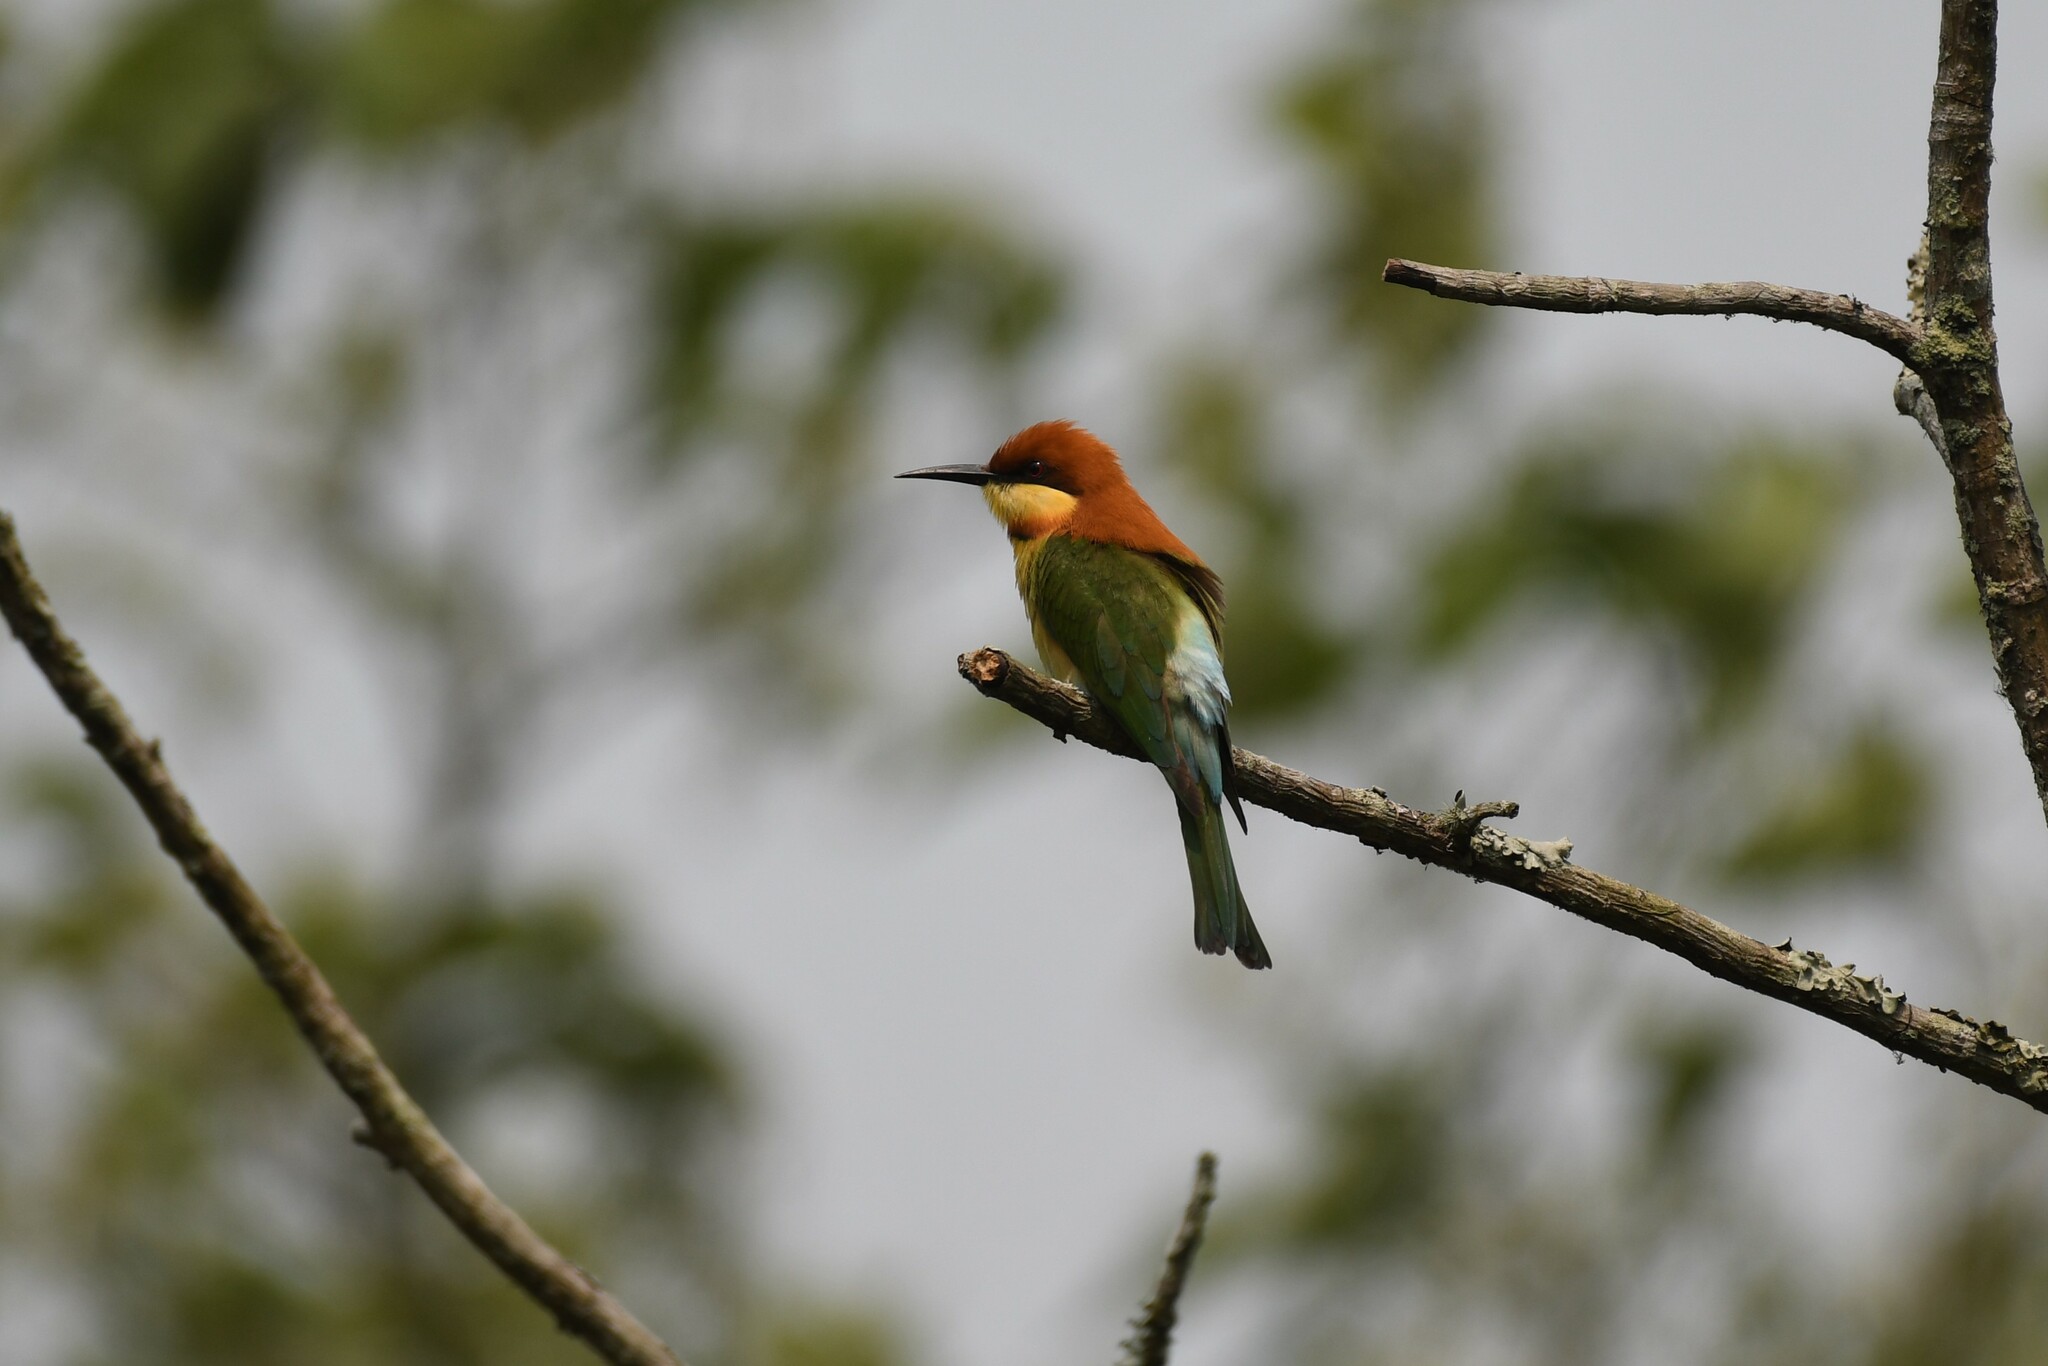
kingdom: Animalia
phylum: Chordata
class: Aves
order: Coraciiformes
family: Meropidae
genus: Merops
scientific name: Merops leschenaulti
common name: Chestnut-headed bee-eater
